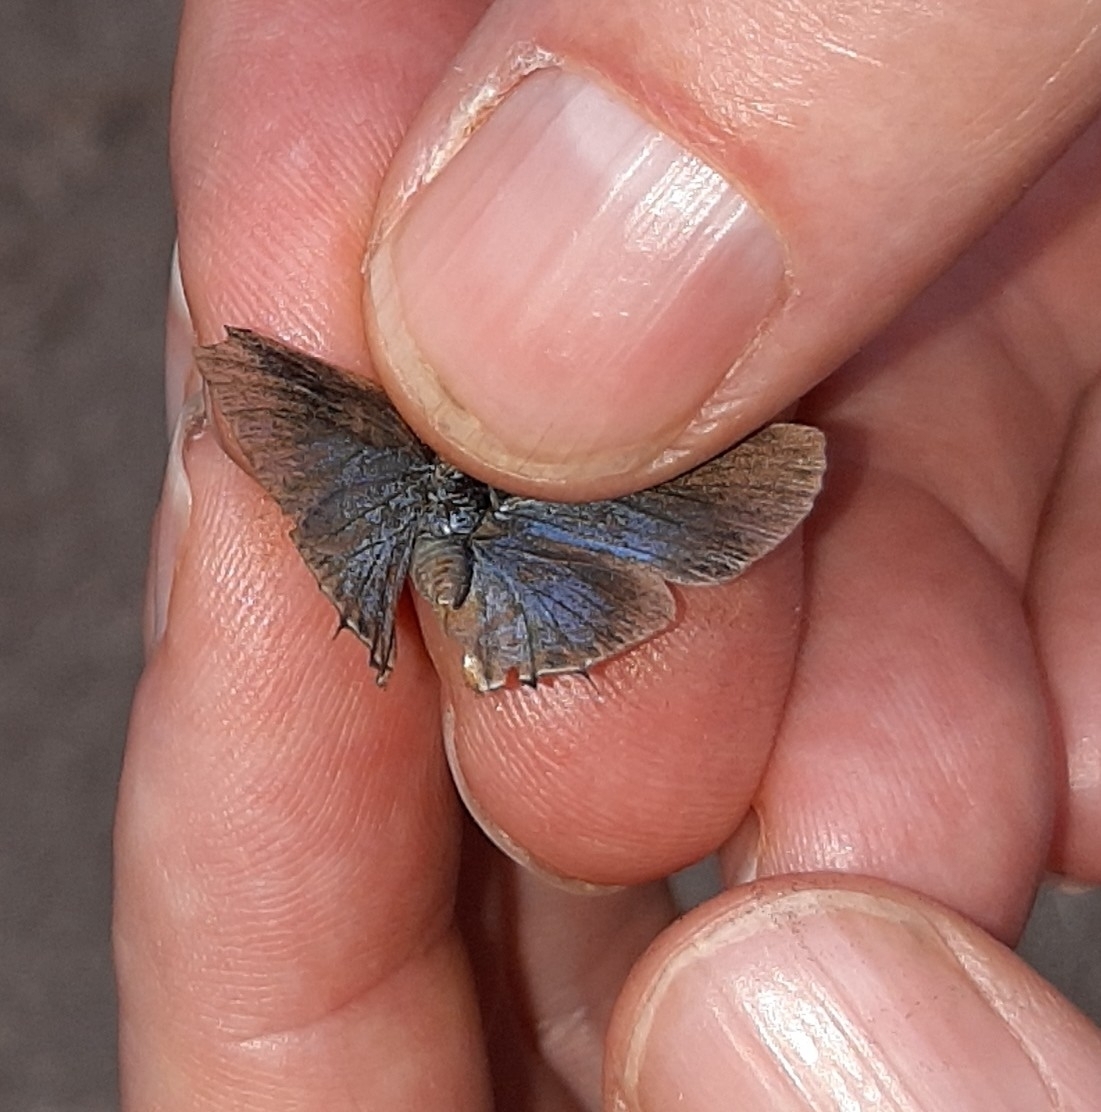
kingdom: Animalia
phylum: Arthropoda
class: Insecta
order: Lepidoptera
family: Lycaenidae
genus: Ziegleria
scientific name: Ziegleria hesperitis
